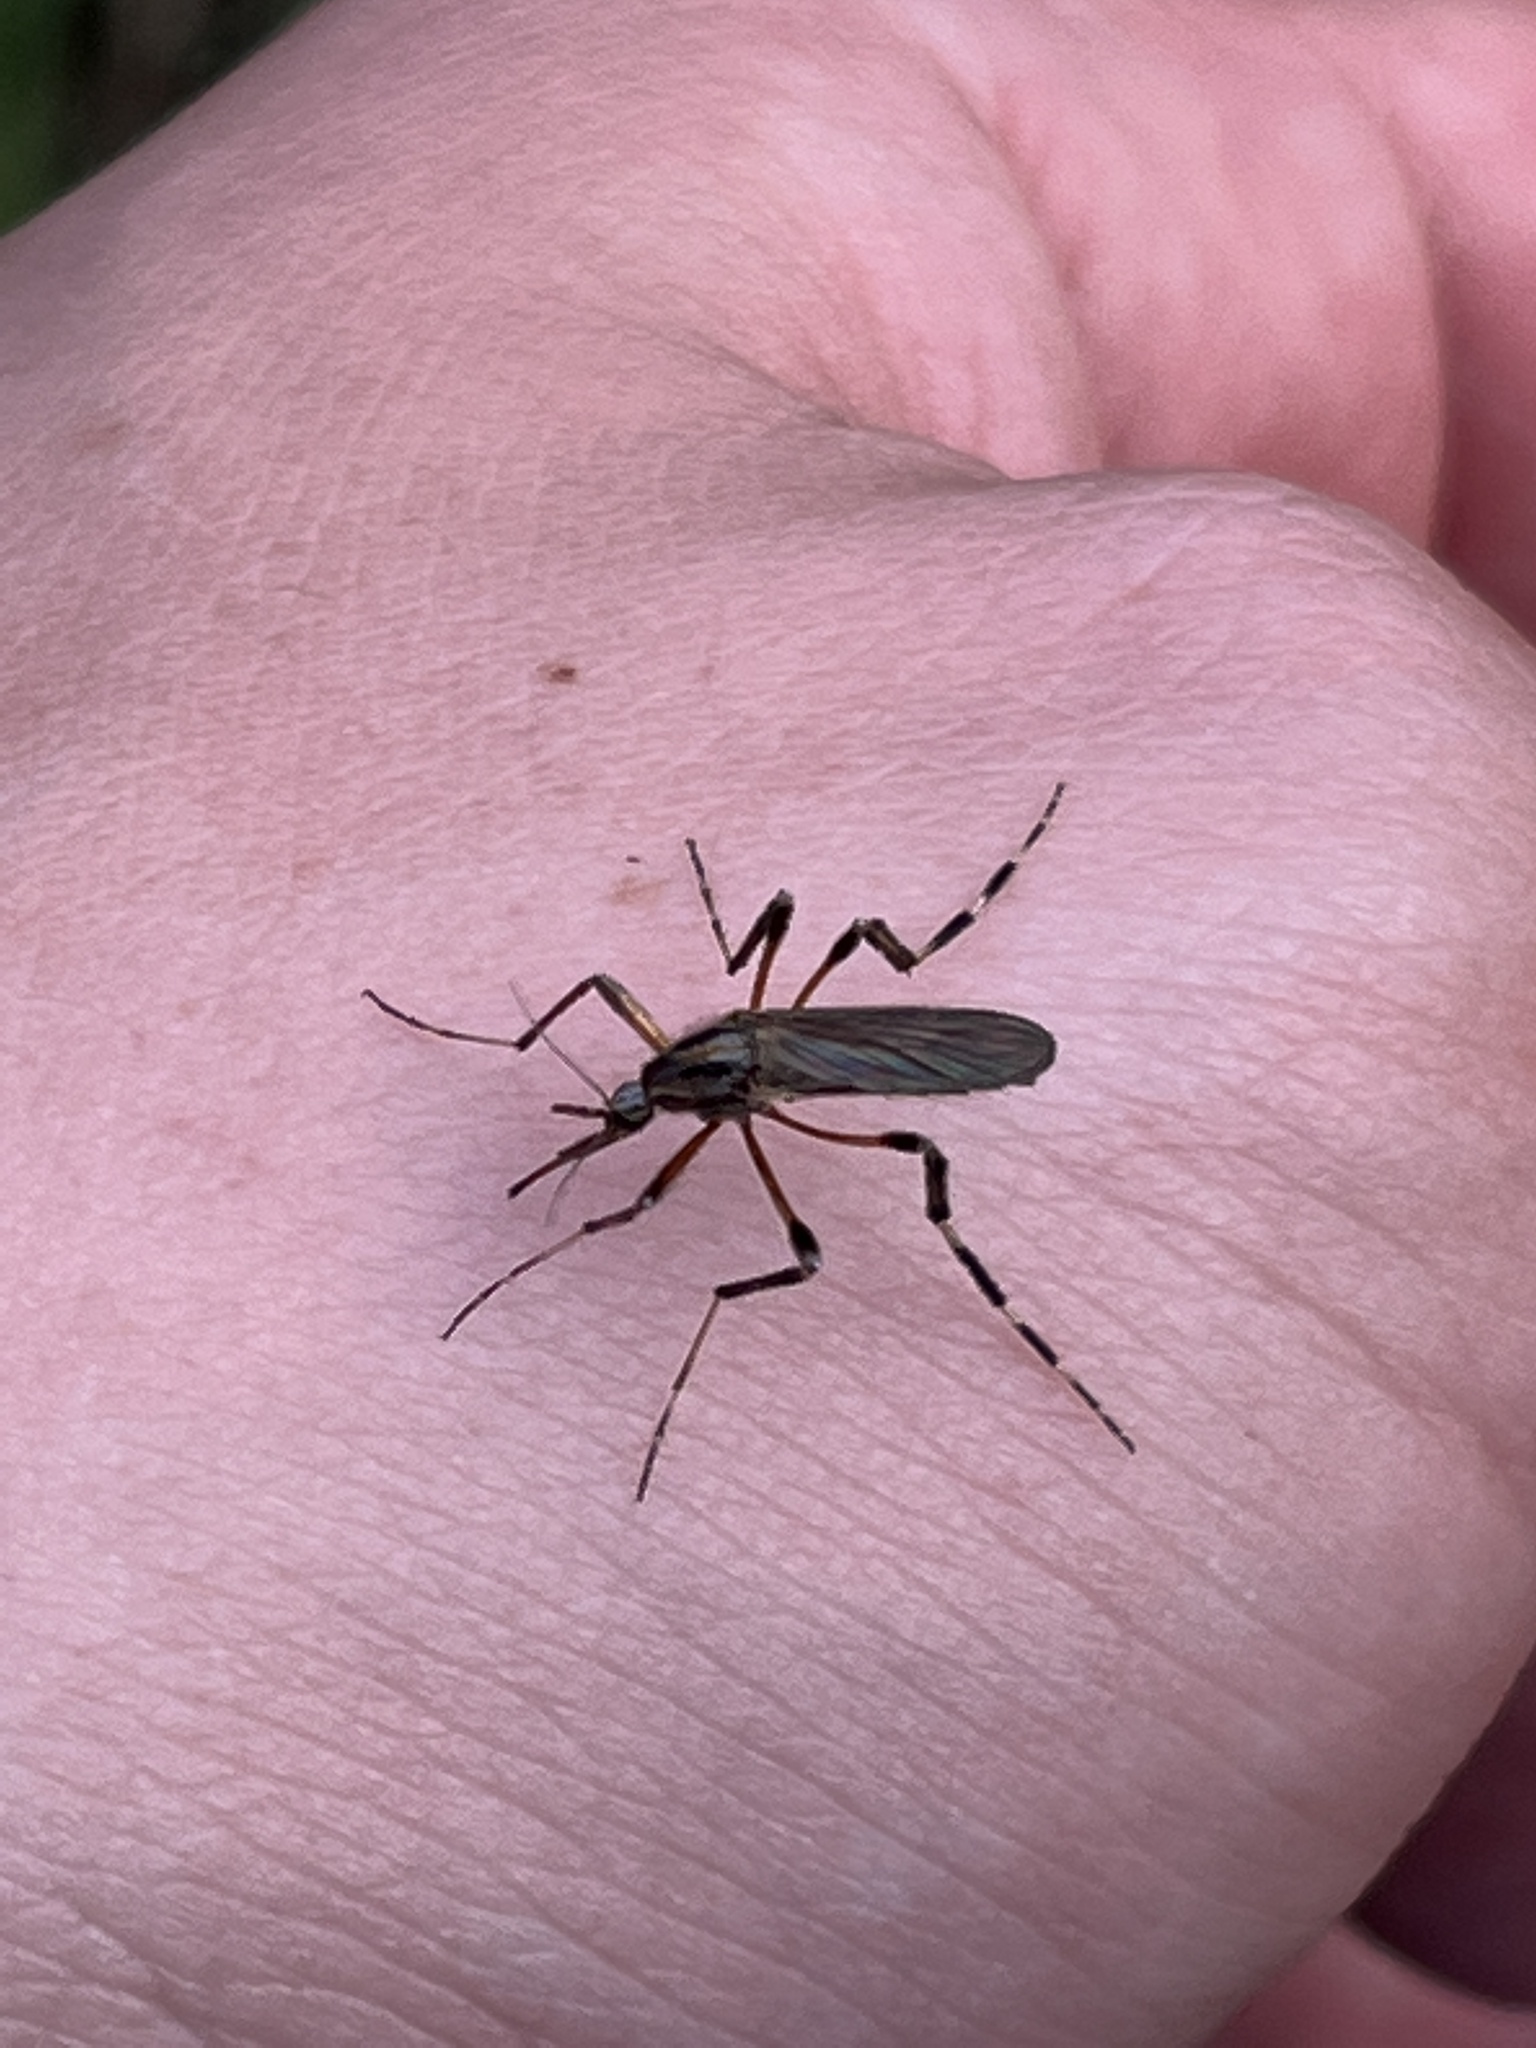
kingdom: Animalia
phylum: Arthropoda
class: Insecta
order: Diptera
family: Culicidae
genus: Psorophora
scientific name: Psorophora ciliata
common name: Gallinipper
